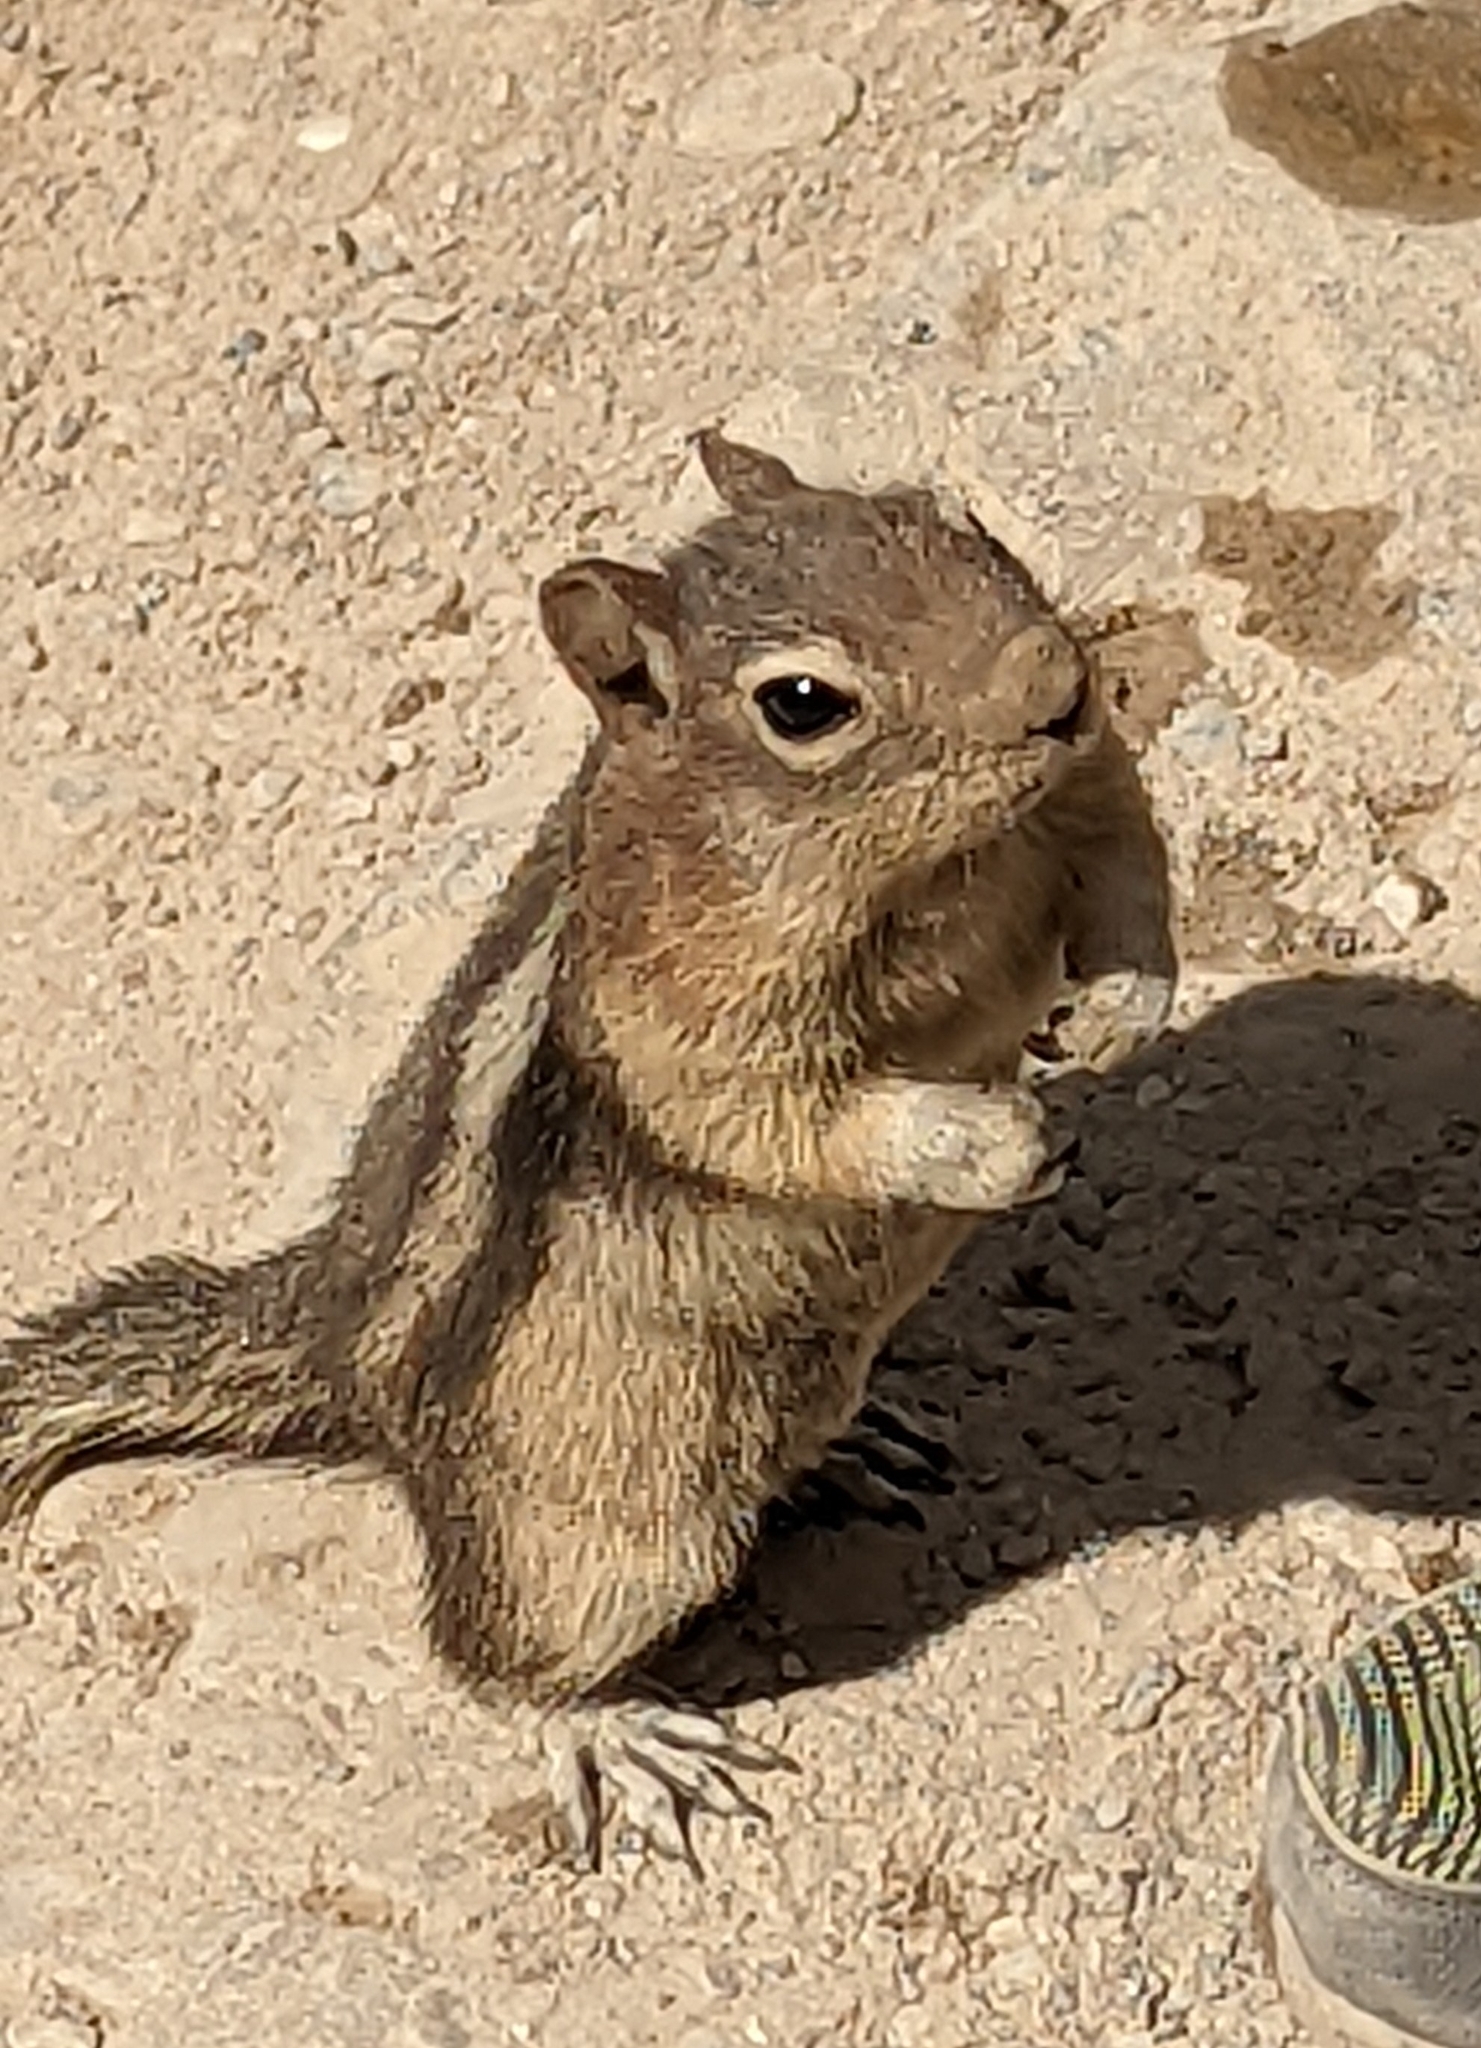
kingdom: Animalia
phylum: Chordata
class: Mammalia
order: Rodentia
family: Sciuridae
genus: Callospermophilus
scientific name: Callospermophilus lateralis
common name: Golden-mantled ground squirrel
